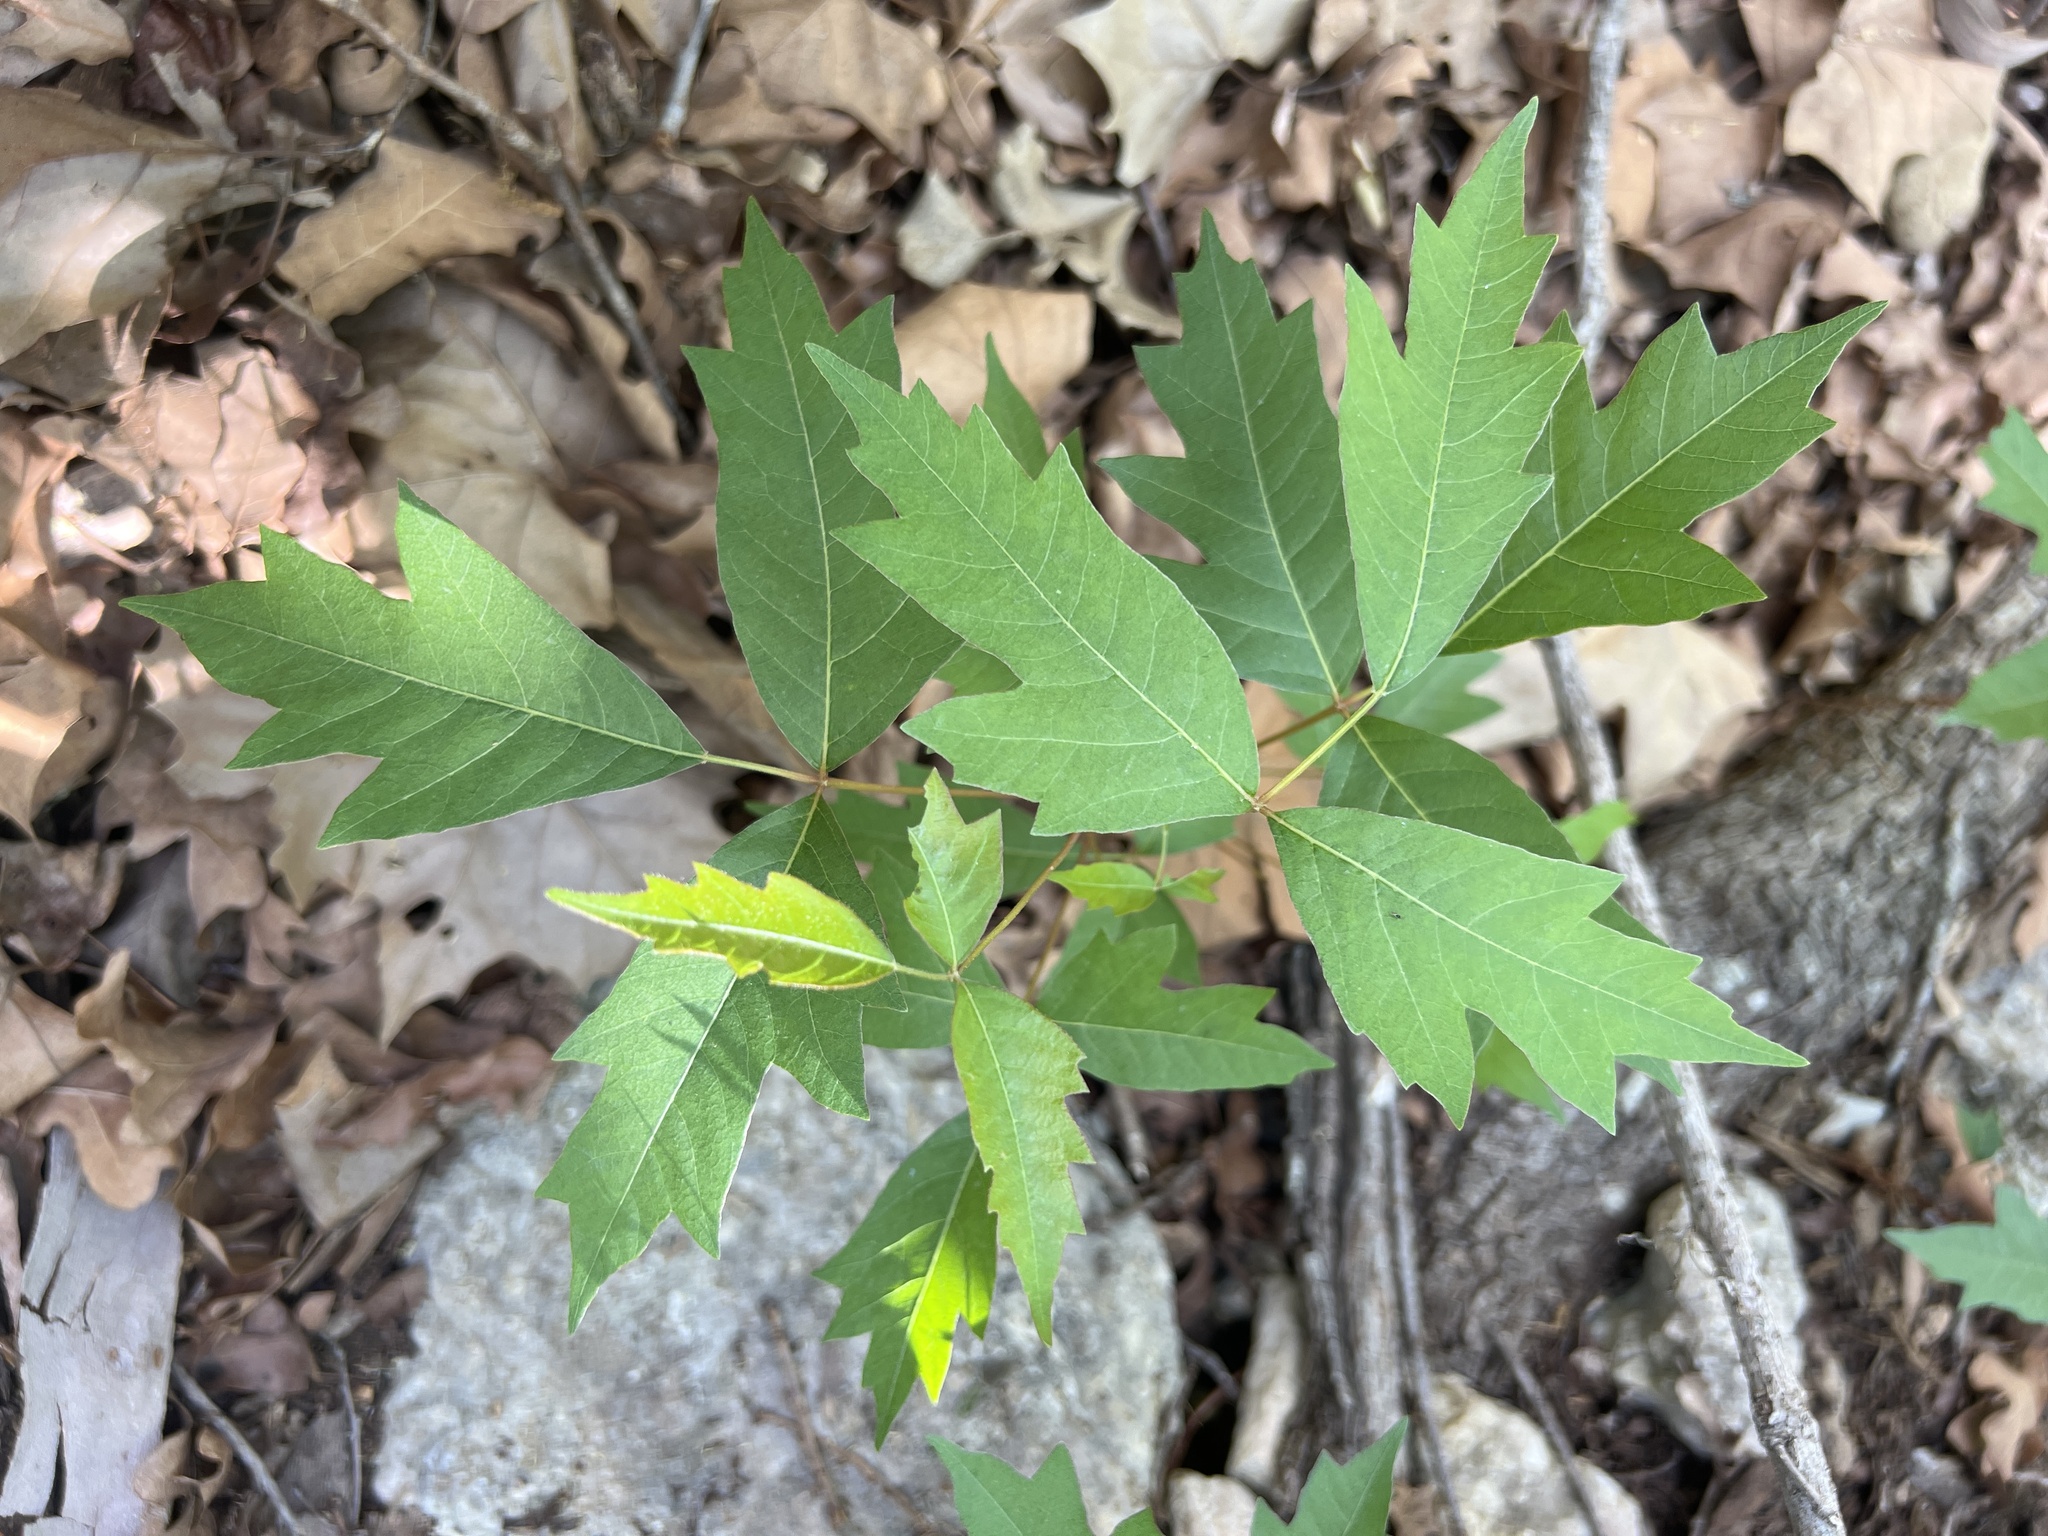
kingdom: Plantae
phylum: Tracheophyta
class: Magnoliopsida
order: Sapindales
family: Anacardiaceae
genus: Toxicodendron
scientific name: Toxicodendron radicans
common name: Poison ivy
